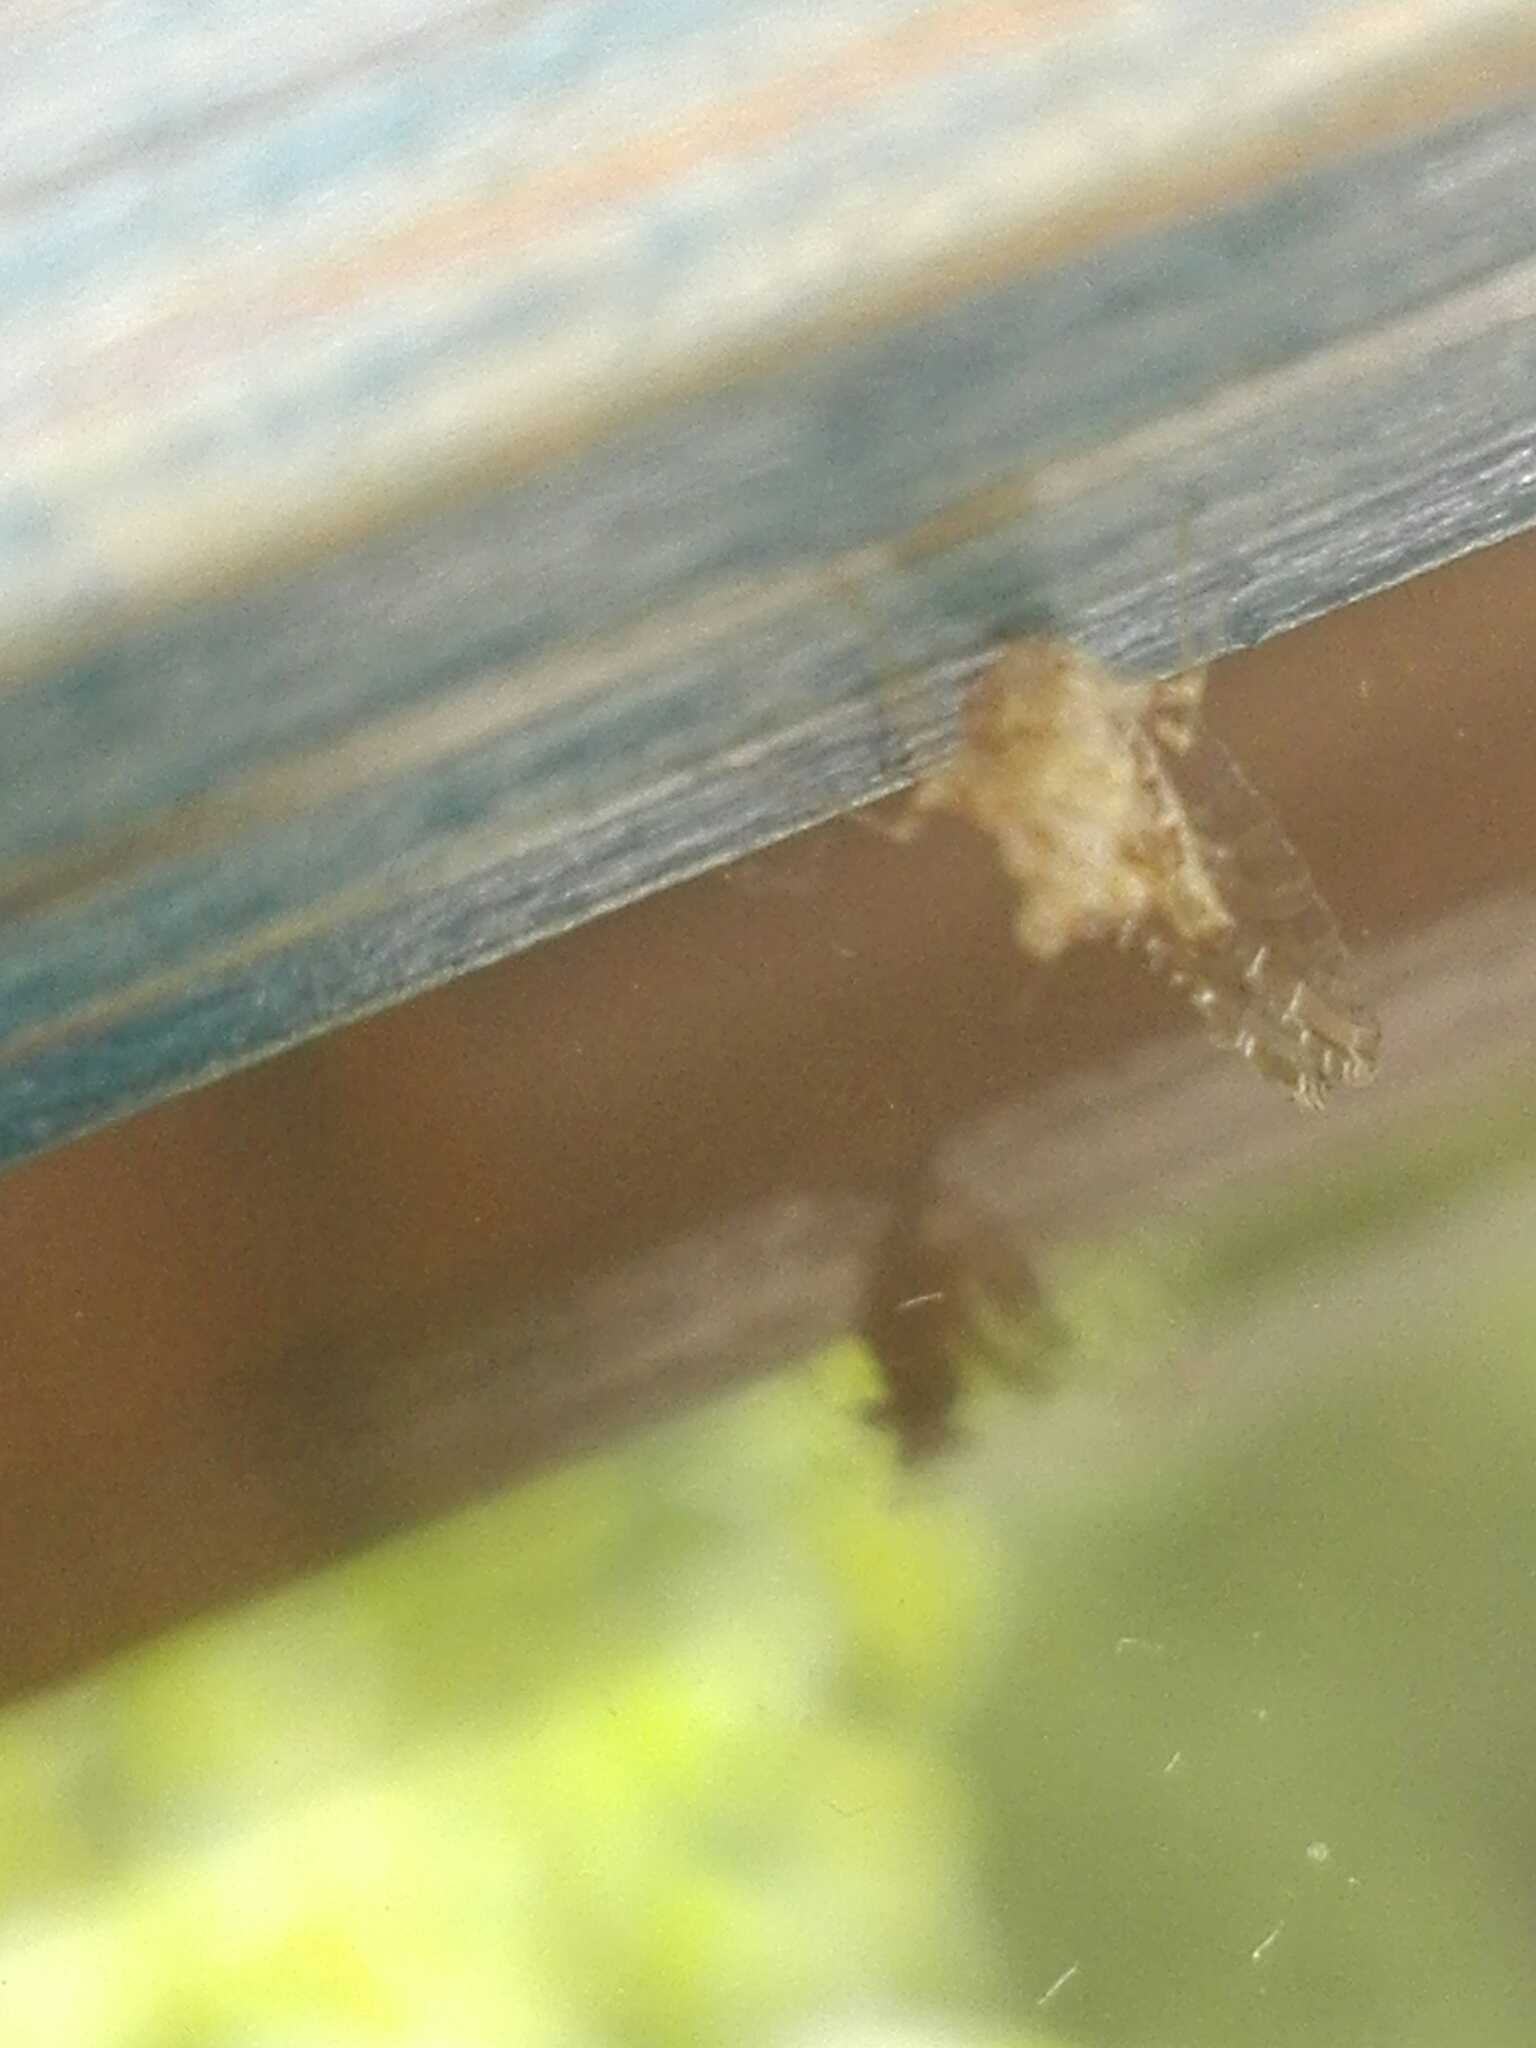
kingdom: Animalia
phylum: Arthropoda
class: Insecta
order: Ephemeroptera
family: Baetidae
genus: Cloeon
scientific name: Cloeon dipterum
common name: Pond olive
